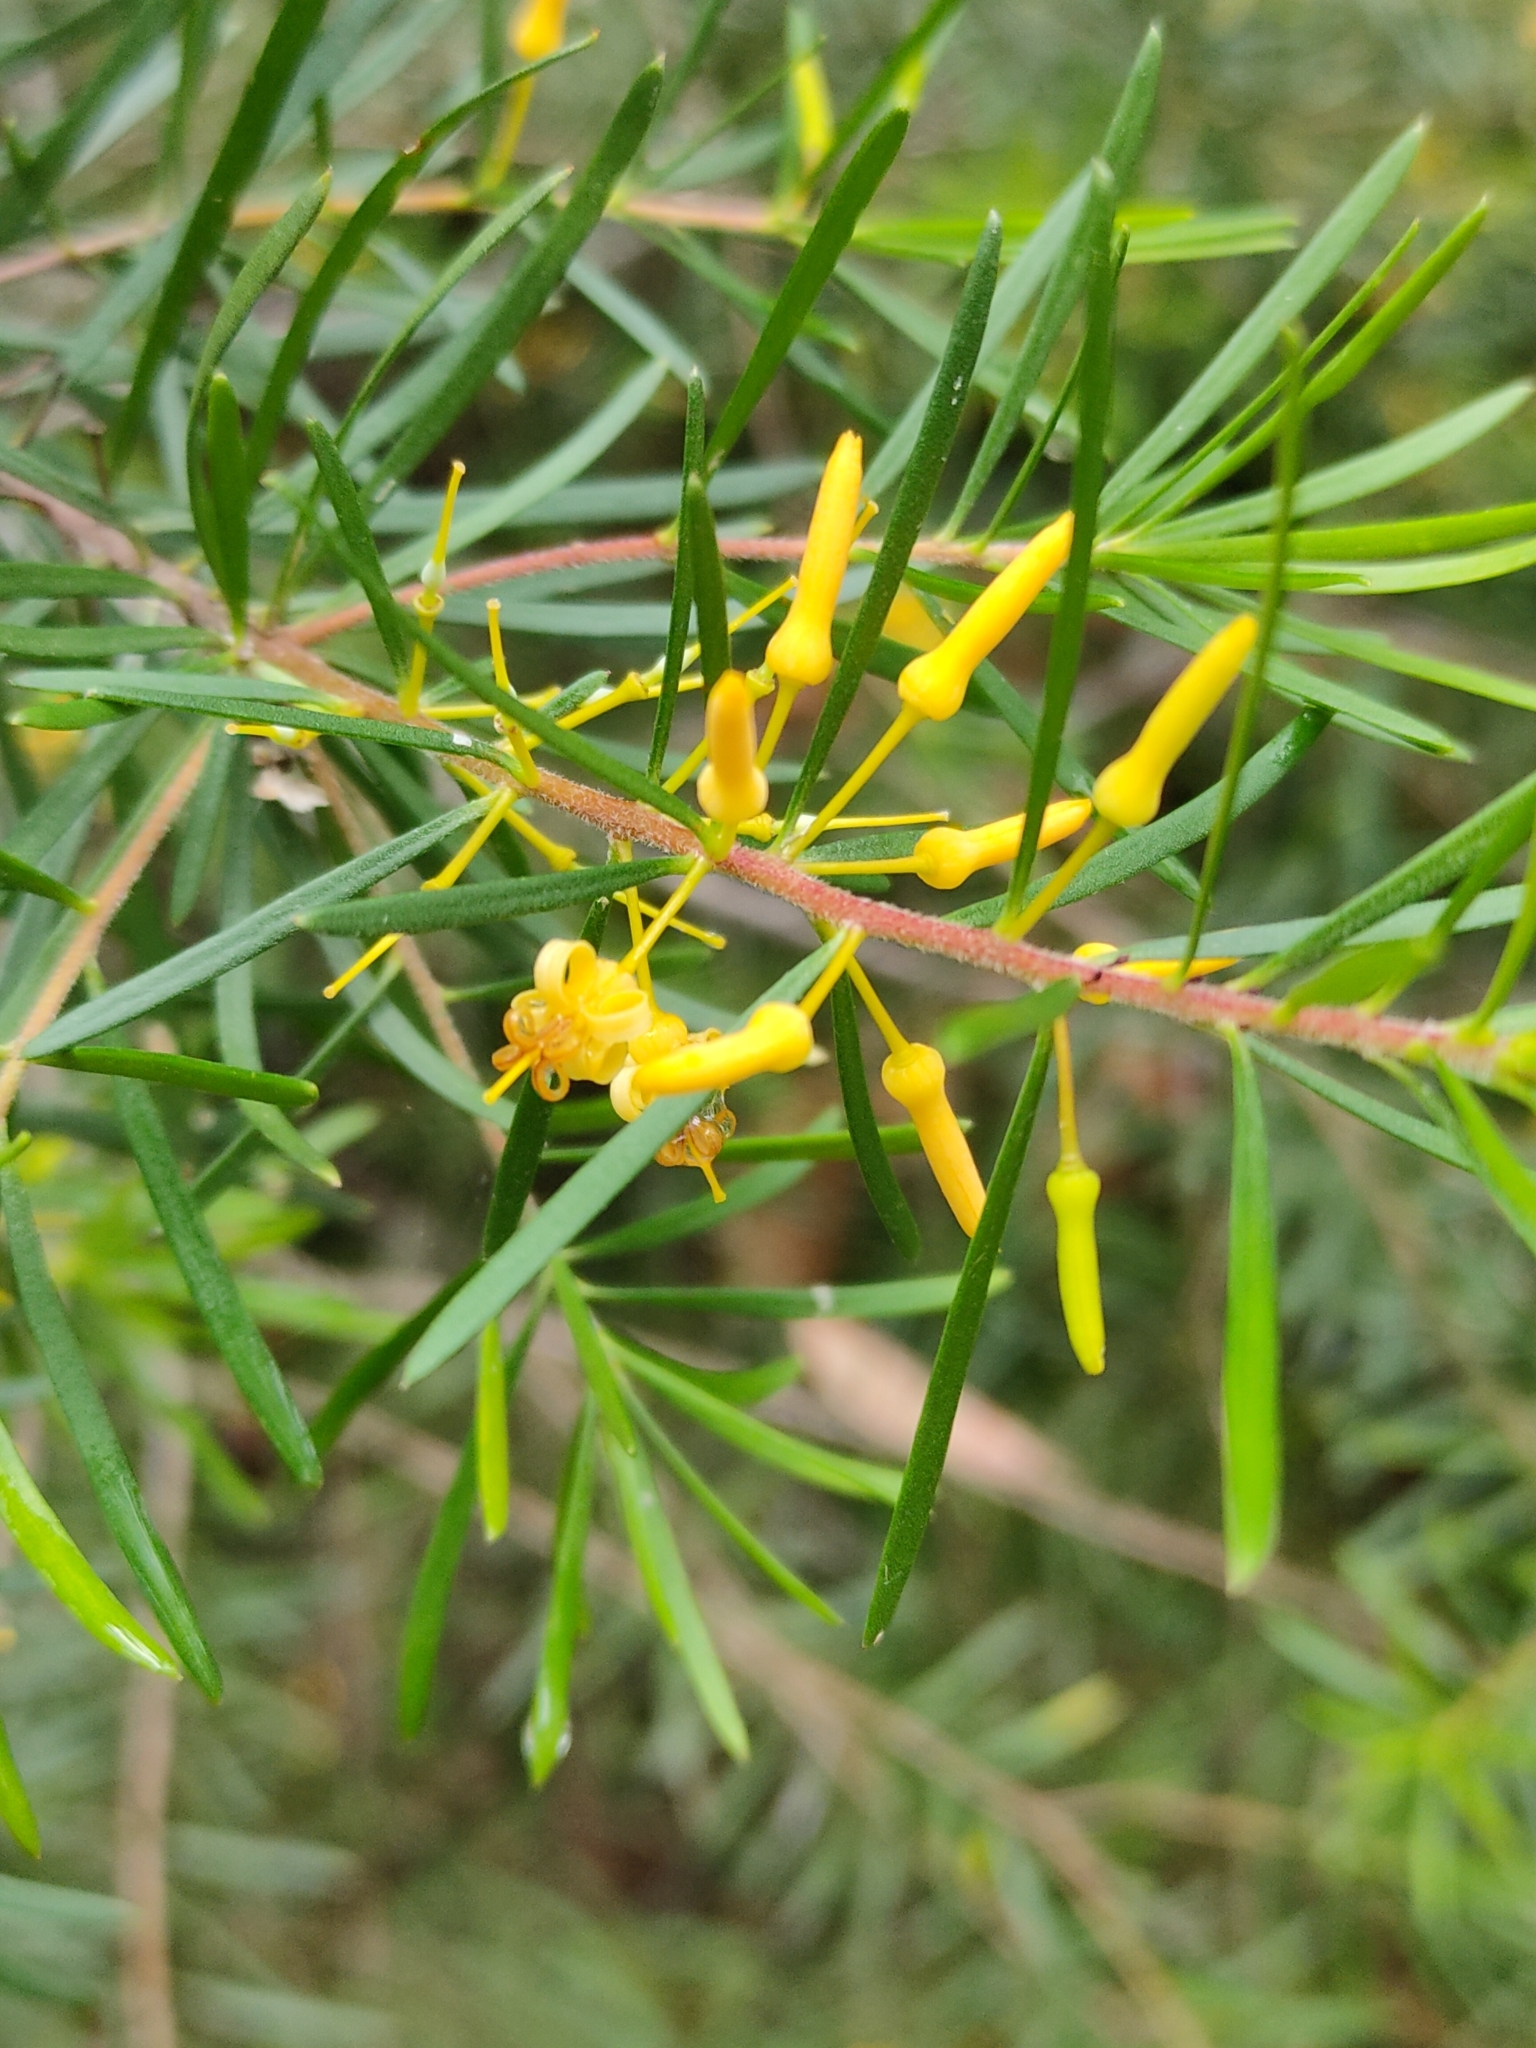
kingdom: Plantae
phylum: Tracheophyta
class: Magnoliopsida
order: Proteales
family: Proteaceae
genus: Persoonia
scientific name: Persoonia virgata
